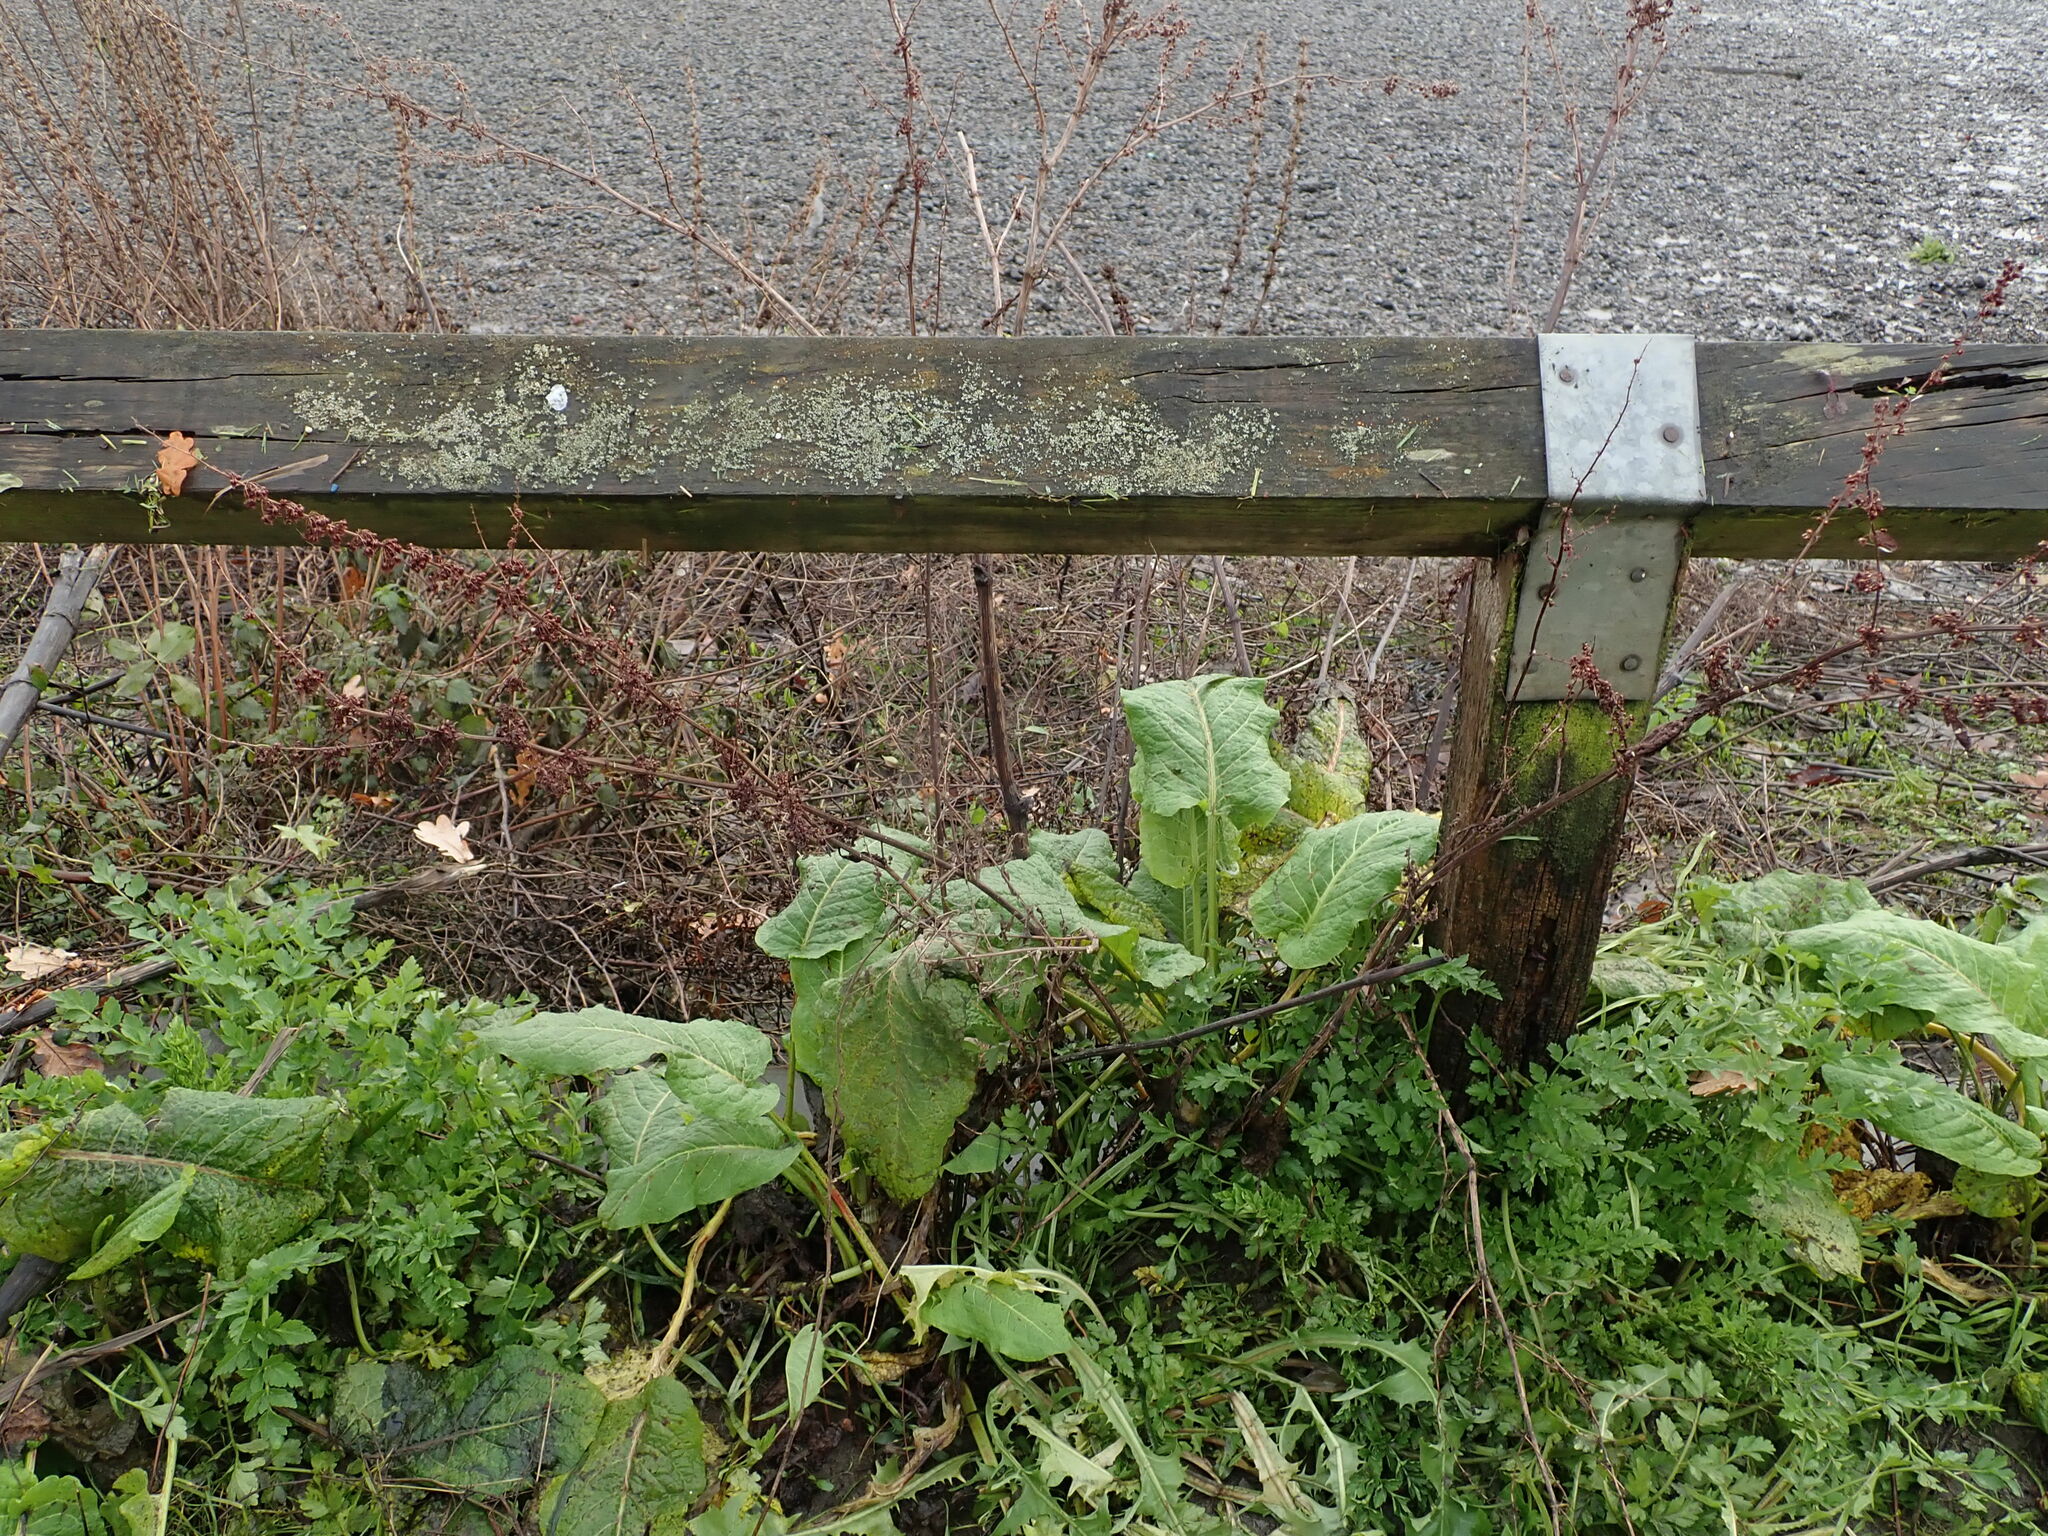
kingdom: Plantae
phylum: Tracheophyta
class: Magnoliopsida
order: Caryophyllales
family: Polygonaceae
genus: Rumex
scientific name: Rumex obtusifolius
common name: Bitter dock
